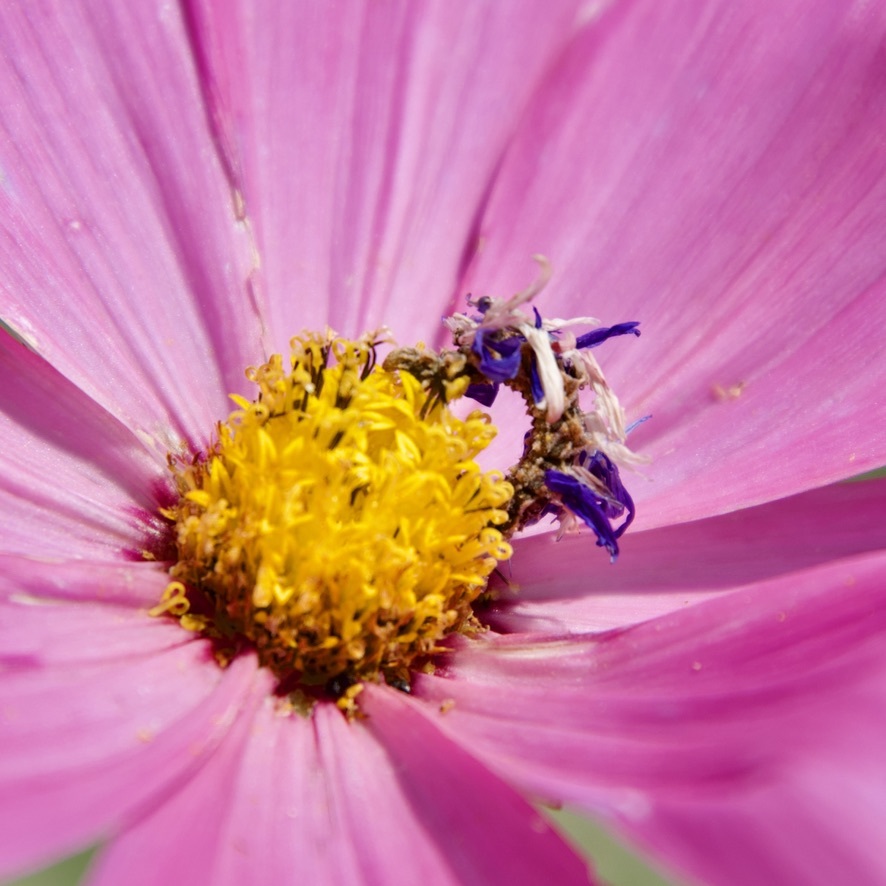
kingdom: Animalia
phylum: Arthropoda
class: Insecta
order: Lepidoptera
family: Geometridae
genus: Synchlora
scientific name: Synchlora aerata
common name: Wavy-lined emerald
